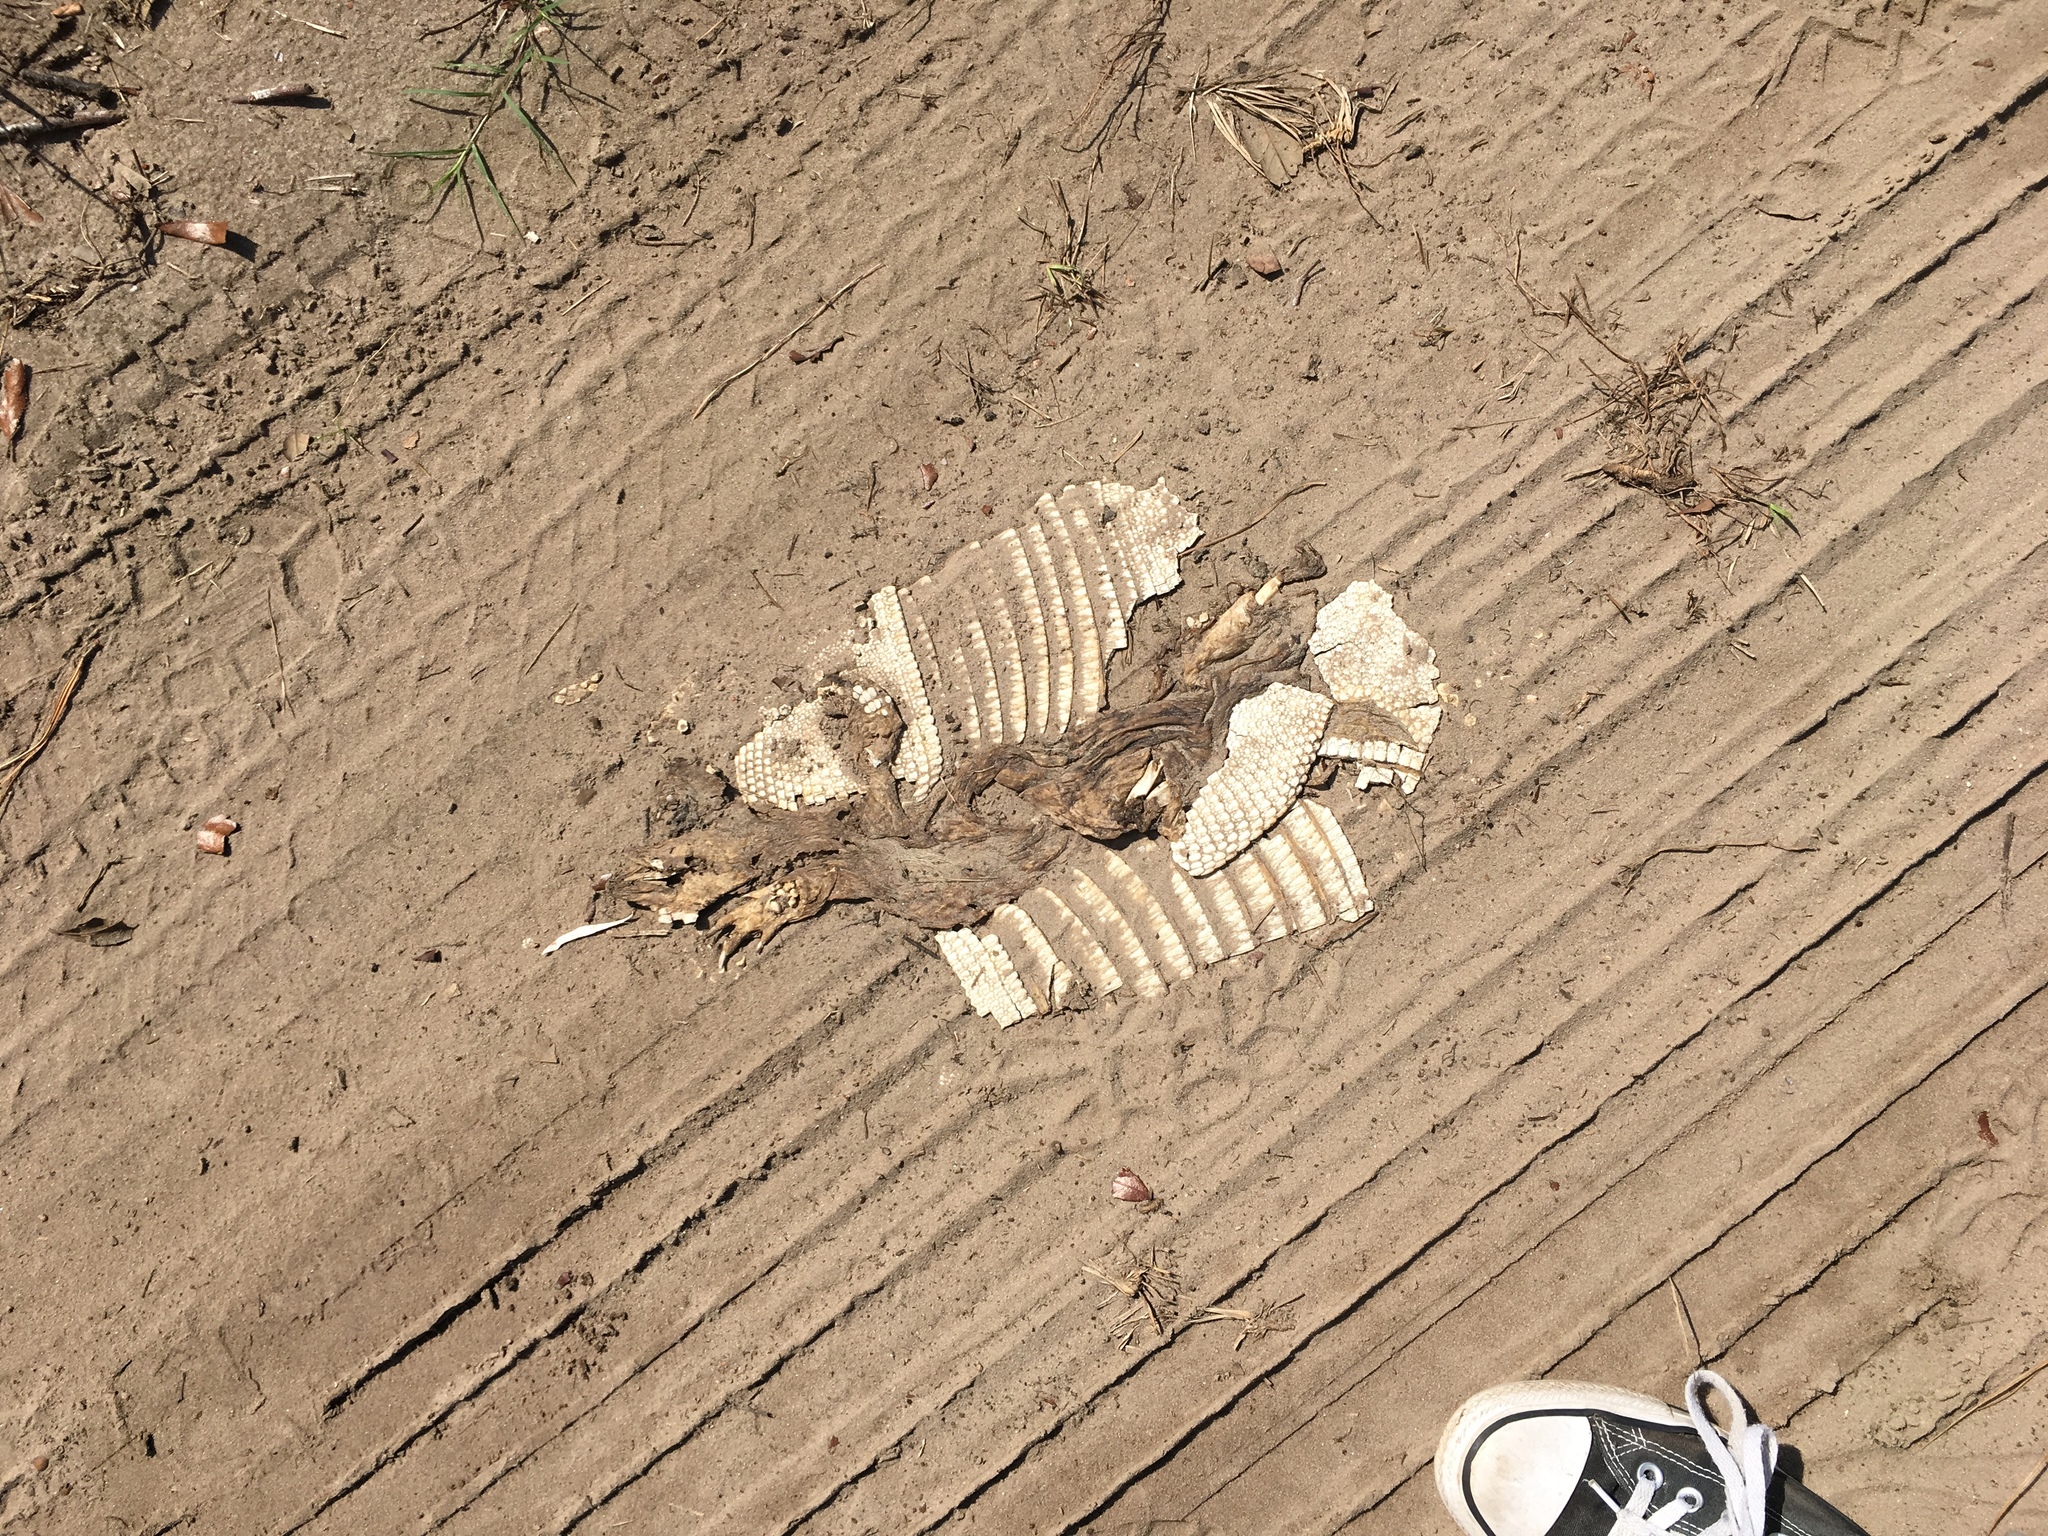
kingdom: Animalia
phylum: Chordata
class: Mammalia
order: Cingulata
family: Dasypodidae
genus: Dasypus
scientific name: Dasypus novemcinctus
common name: Nine-banded armadillo
